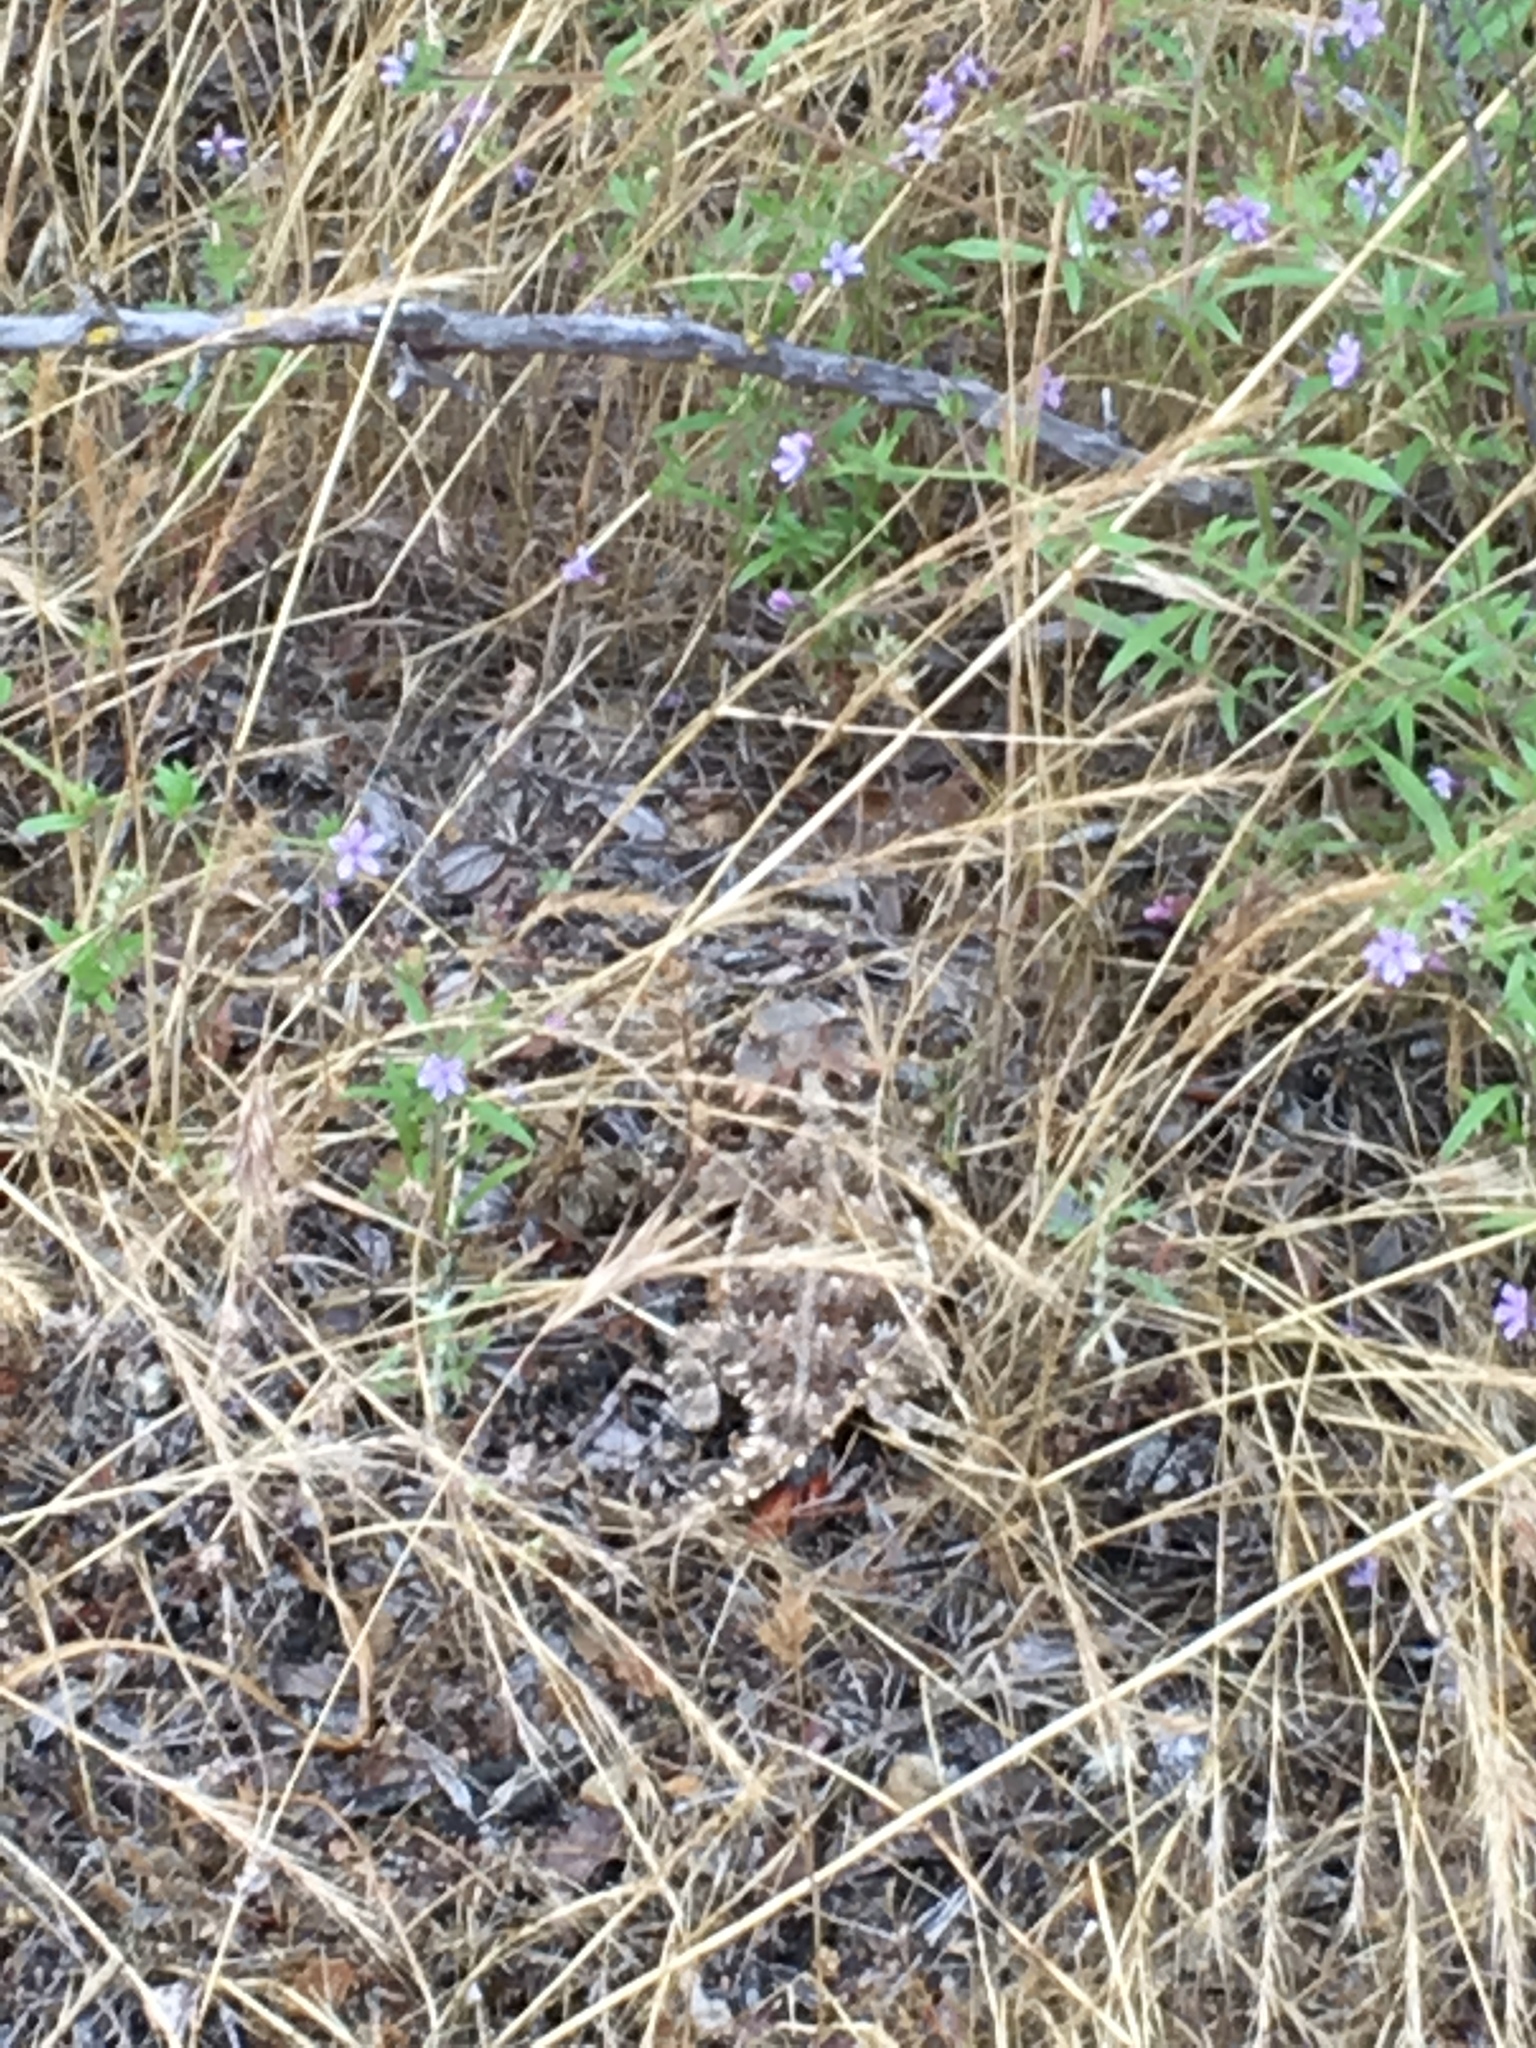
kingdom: Animalia
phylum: Chordata
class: Squamata
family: Phrynosomatidae
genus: Phrynosoma
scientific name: Phrynosoma blainvillii
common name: San diego horned lizard
